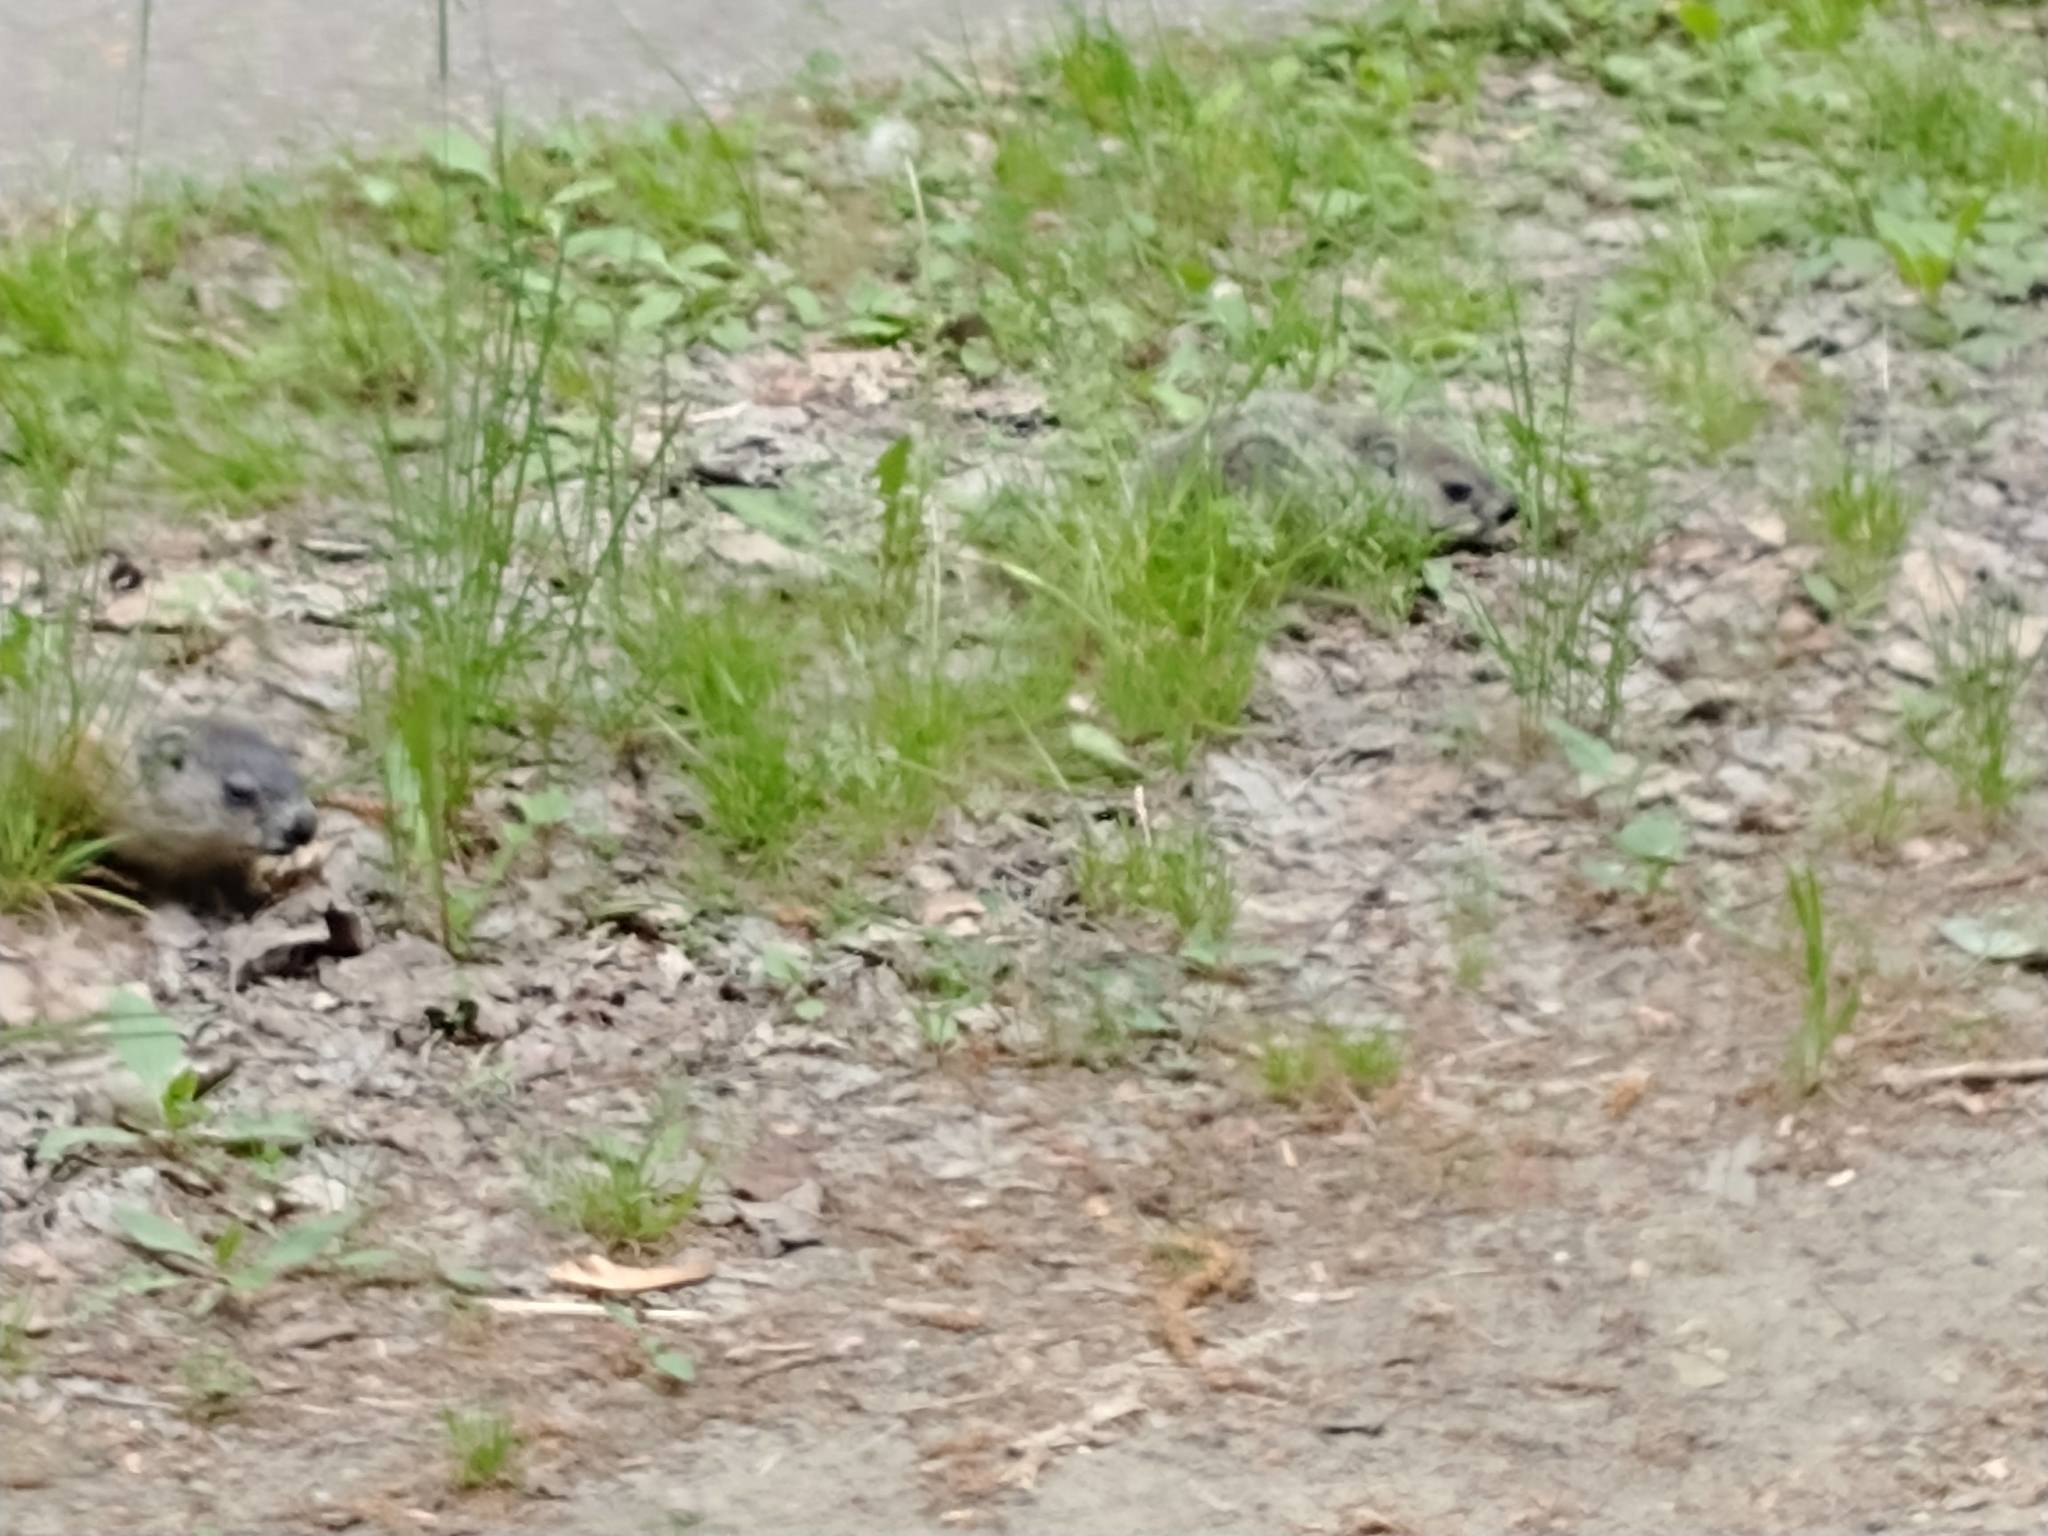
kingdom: Animalia
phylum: Chordata
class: Mammalia
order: Rodentia
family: Sciuridae
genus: Marmota
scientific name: Marmota monax
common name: Groundhog
